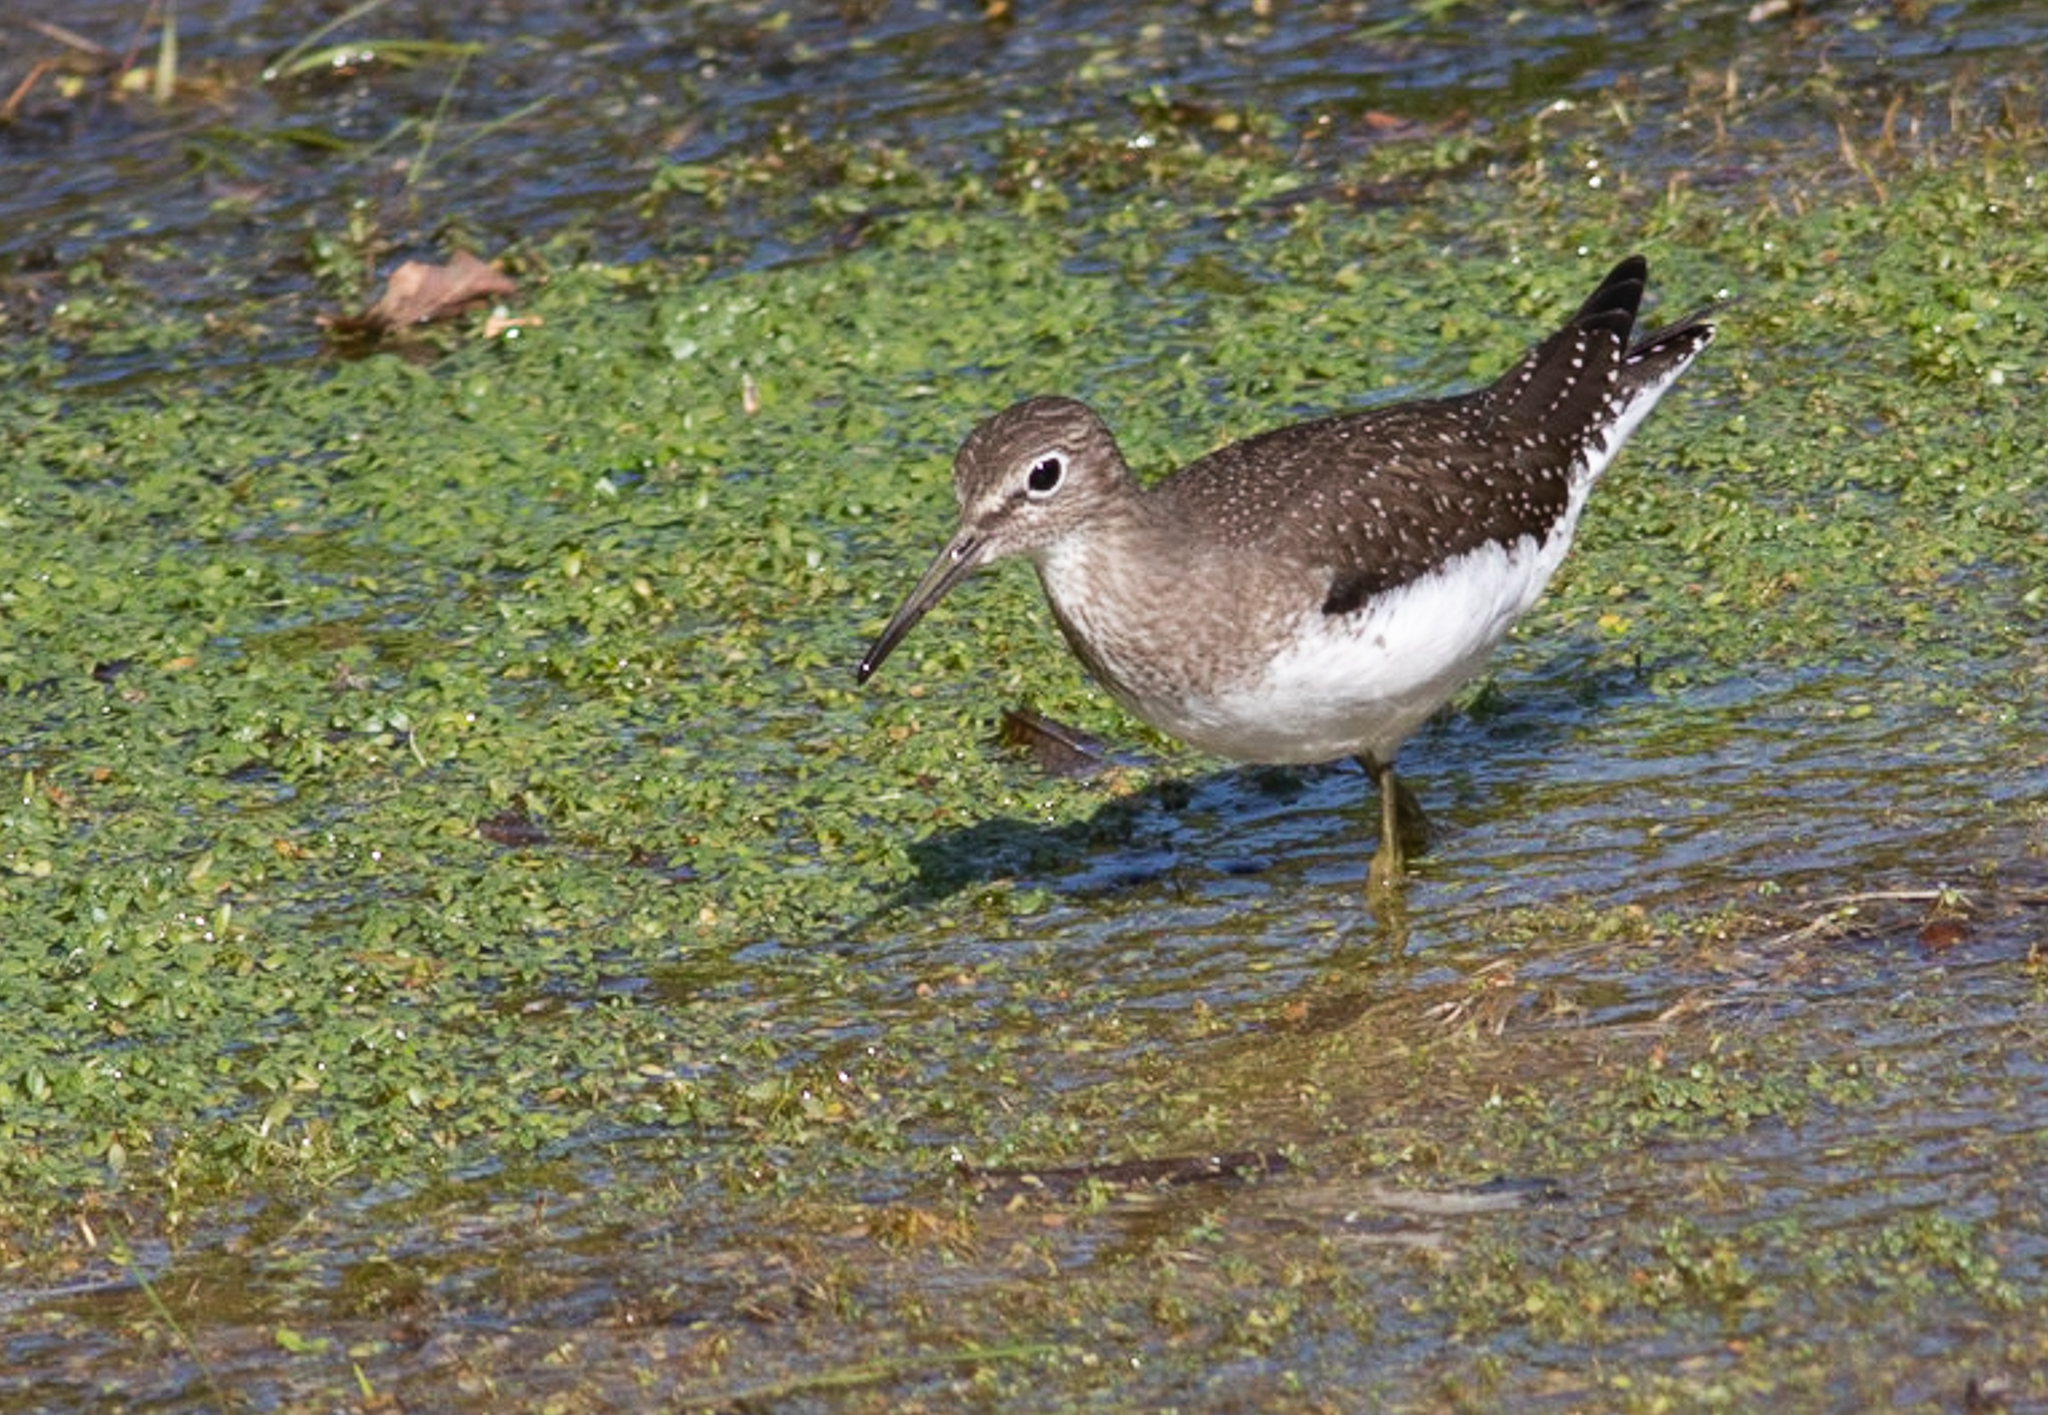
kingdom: Animalia
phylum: Chordata
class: Aves
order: Charadriiformes
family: Scolopacidae
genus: Tringa
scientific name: Tringa solitaria
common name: Solitary sandpiper
